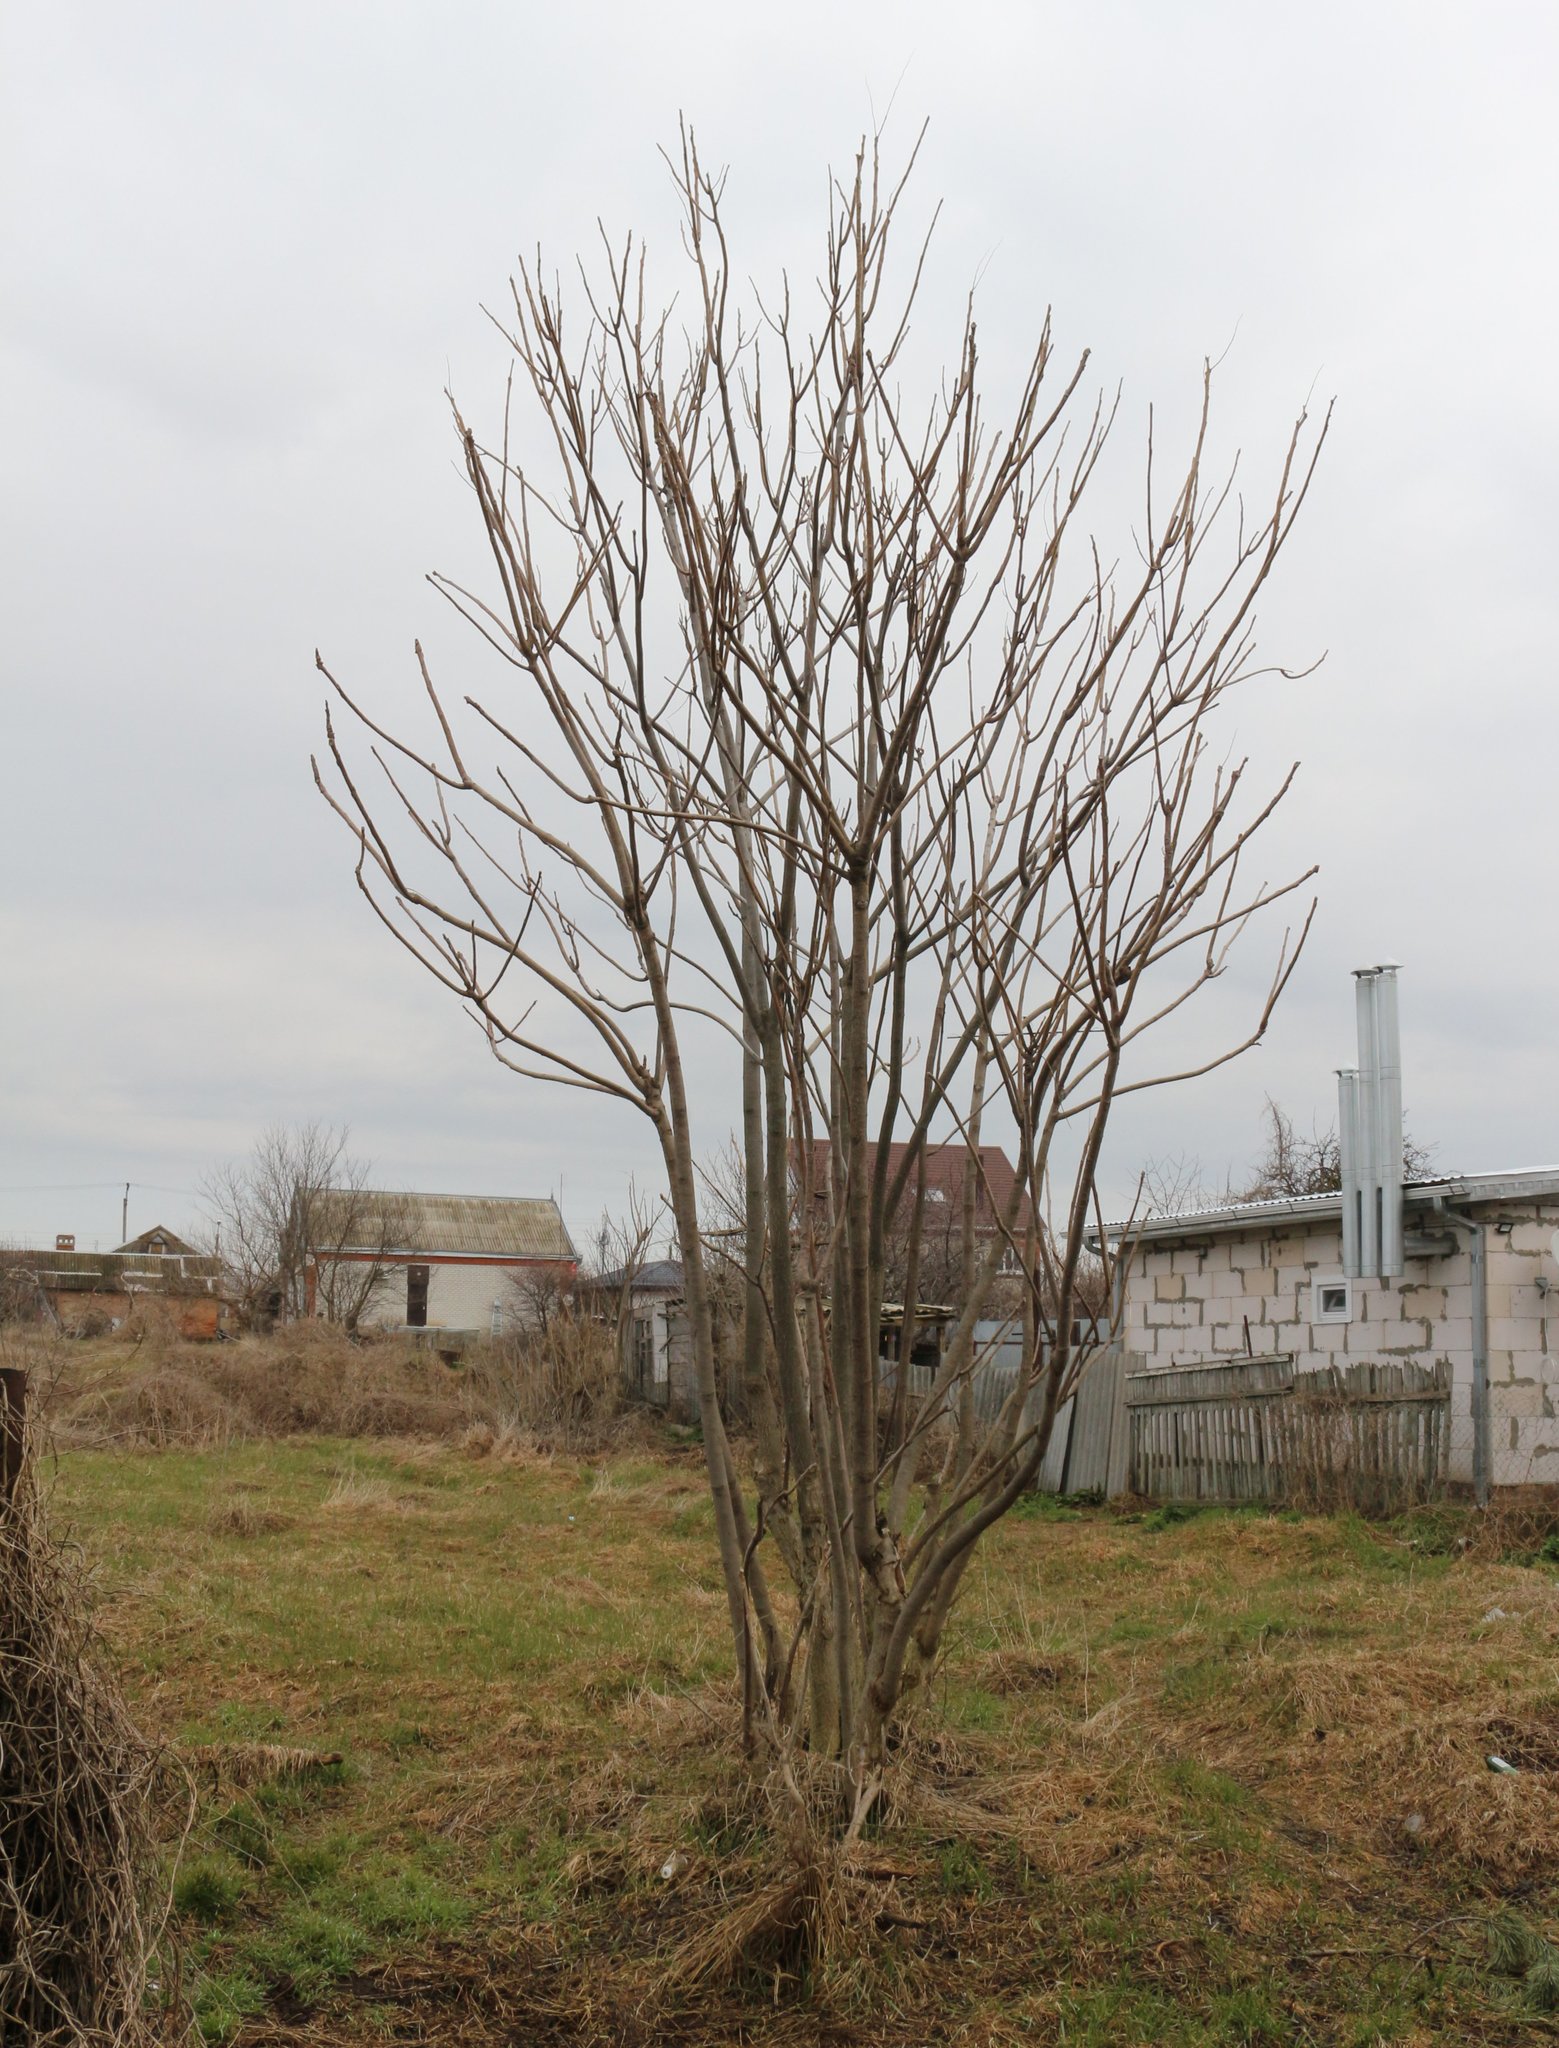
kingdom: Plantae
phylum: Tracheophyta
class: Magnoliopsida
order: Sapindales
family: Simaroubaceae
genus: Ailanthus
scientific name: Ailanthus altissima
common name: Tree-of-heaven
